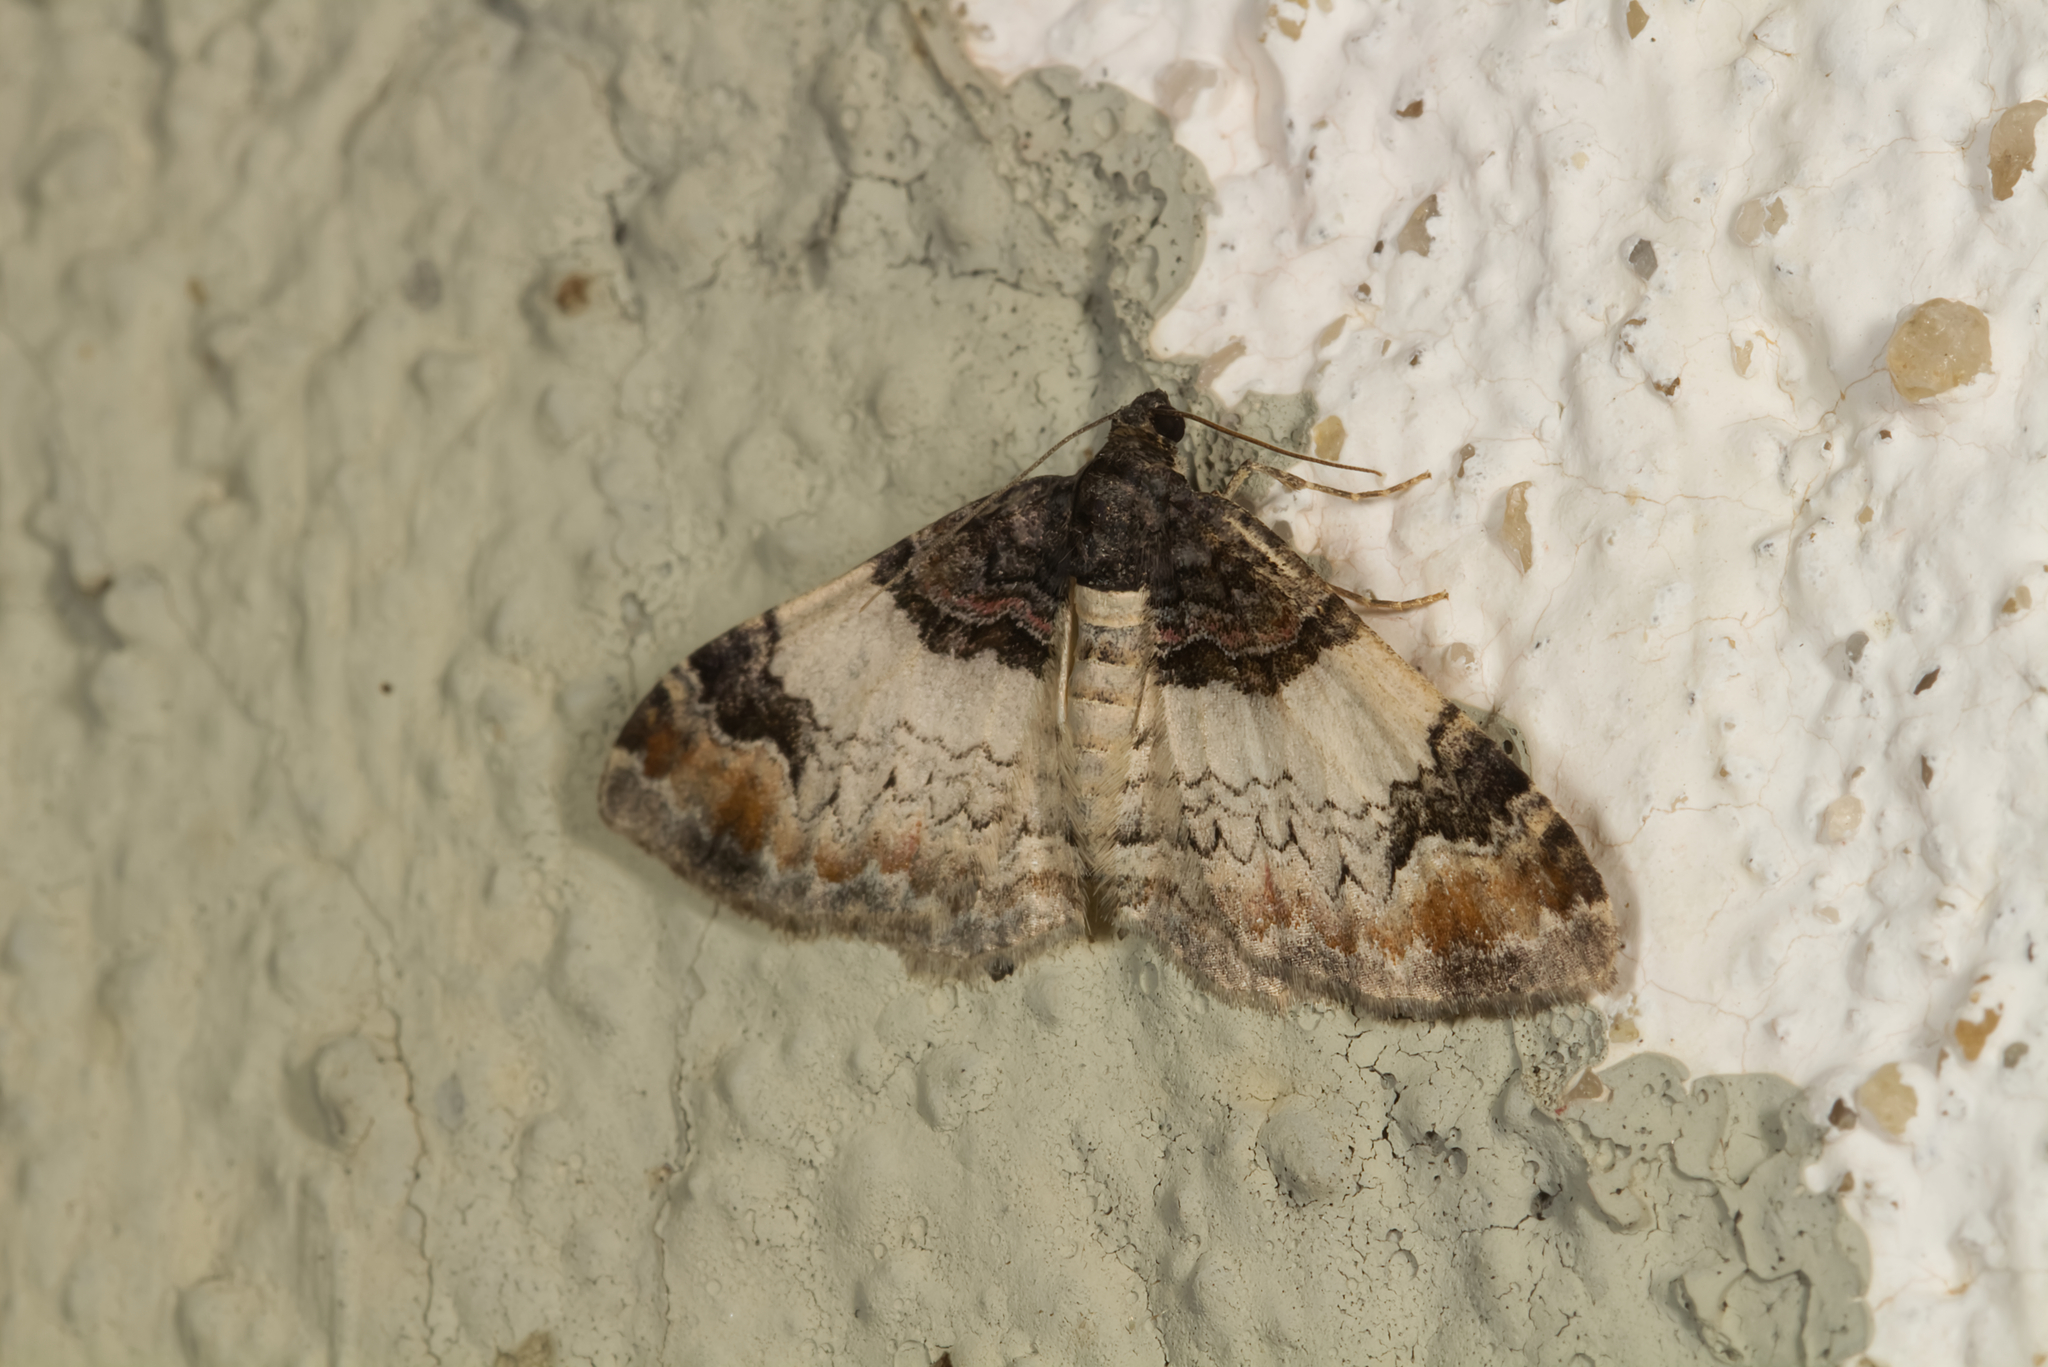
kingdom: Animalia
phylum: Arthropoda
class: Insecta
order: Lepidoptera
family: Geometridae
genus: Catarhoe
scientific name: Catarhoe cuculata
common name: Royal mantle
